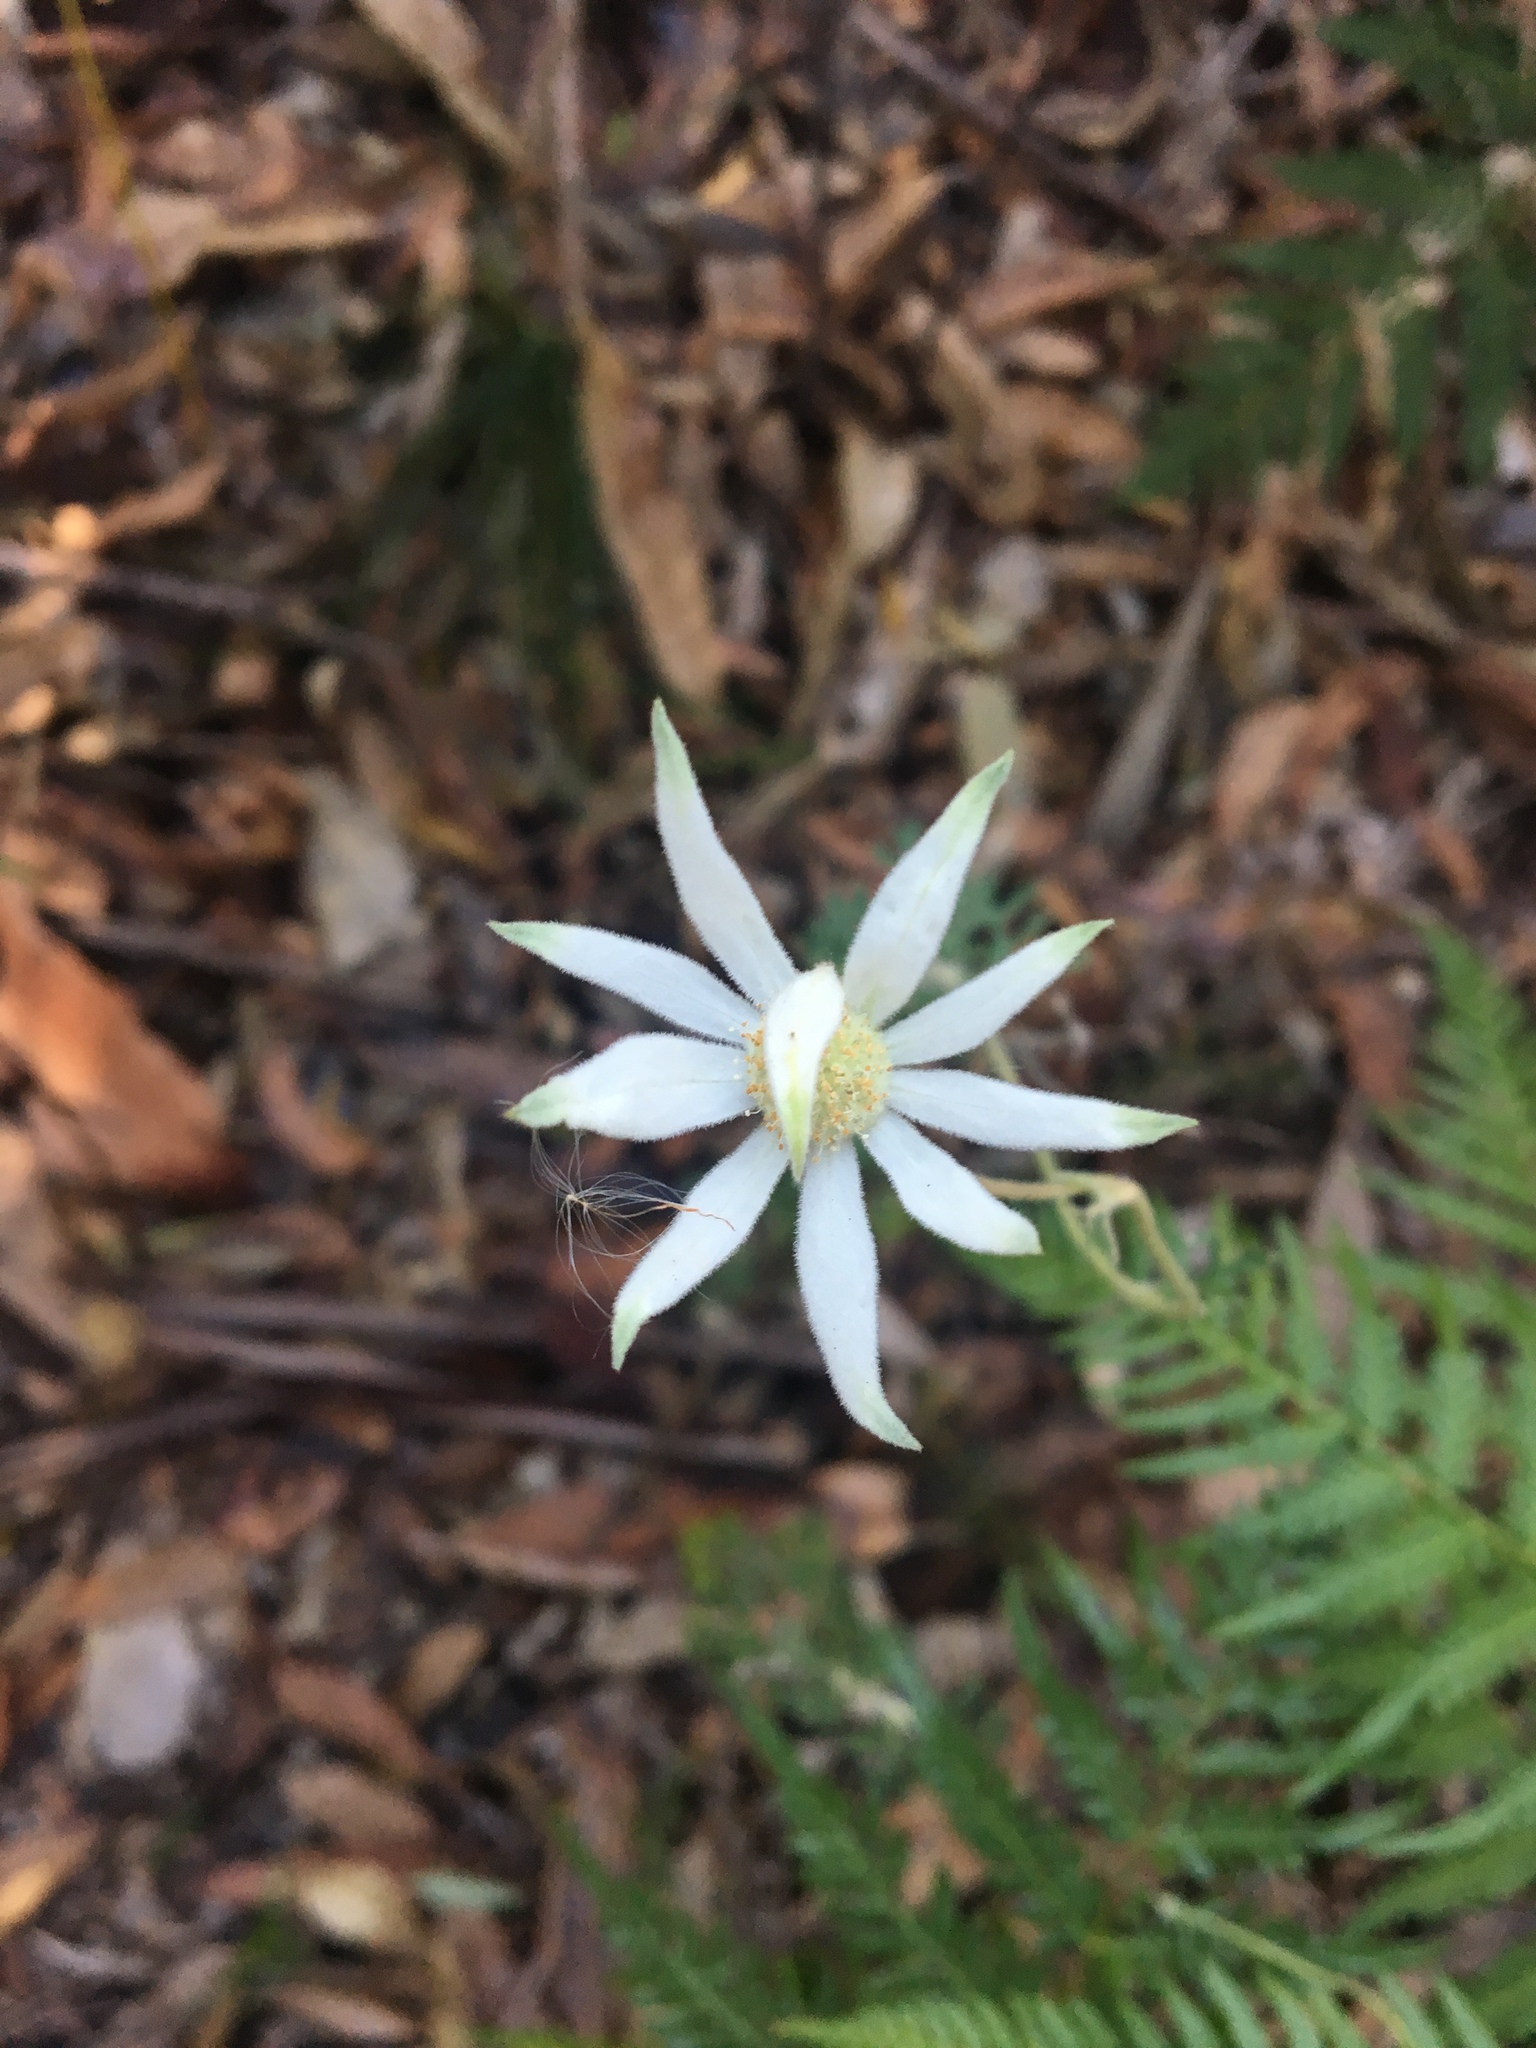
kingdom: Plantae
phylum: Tracheophyta
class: Magnoliopsida
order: Apiales
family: Apiaceae
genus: Actinotus
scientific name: Actinotus helianthi
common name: Flannel-flower
